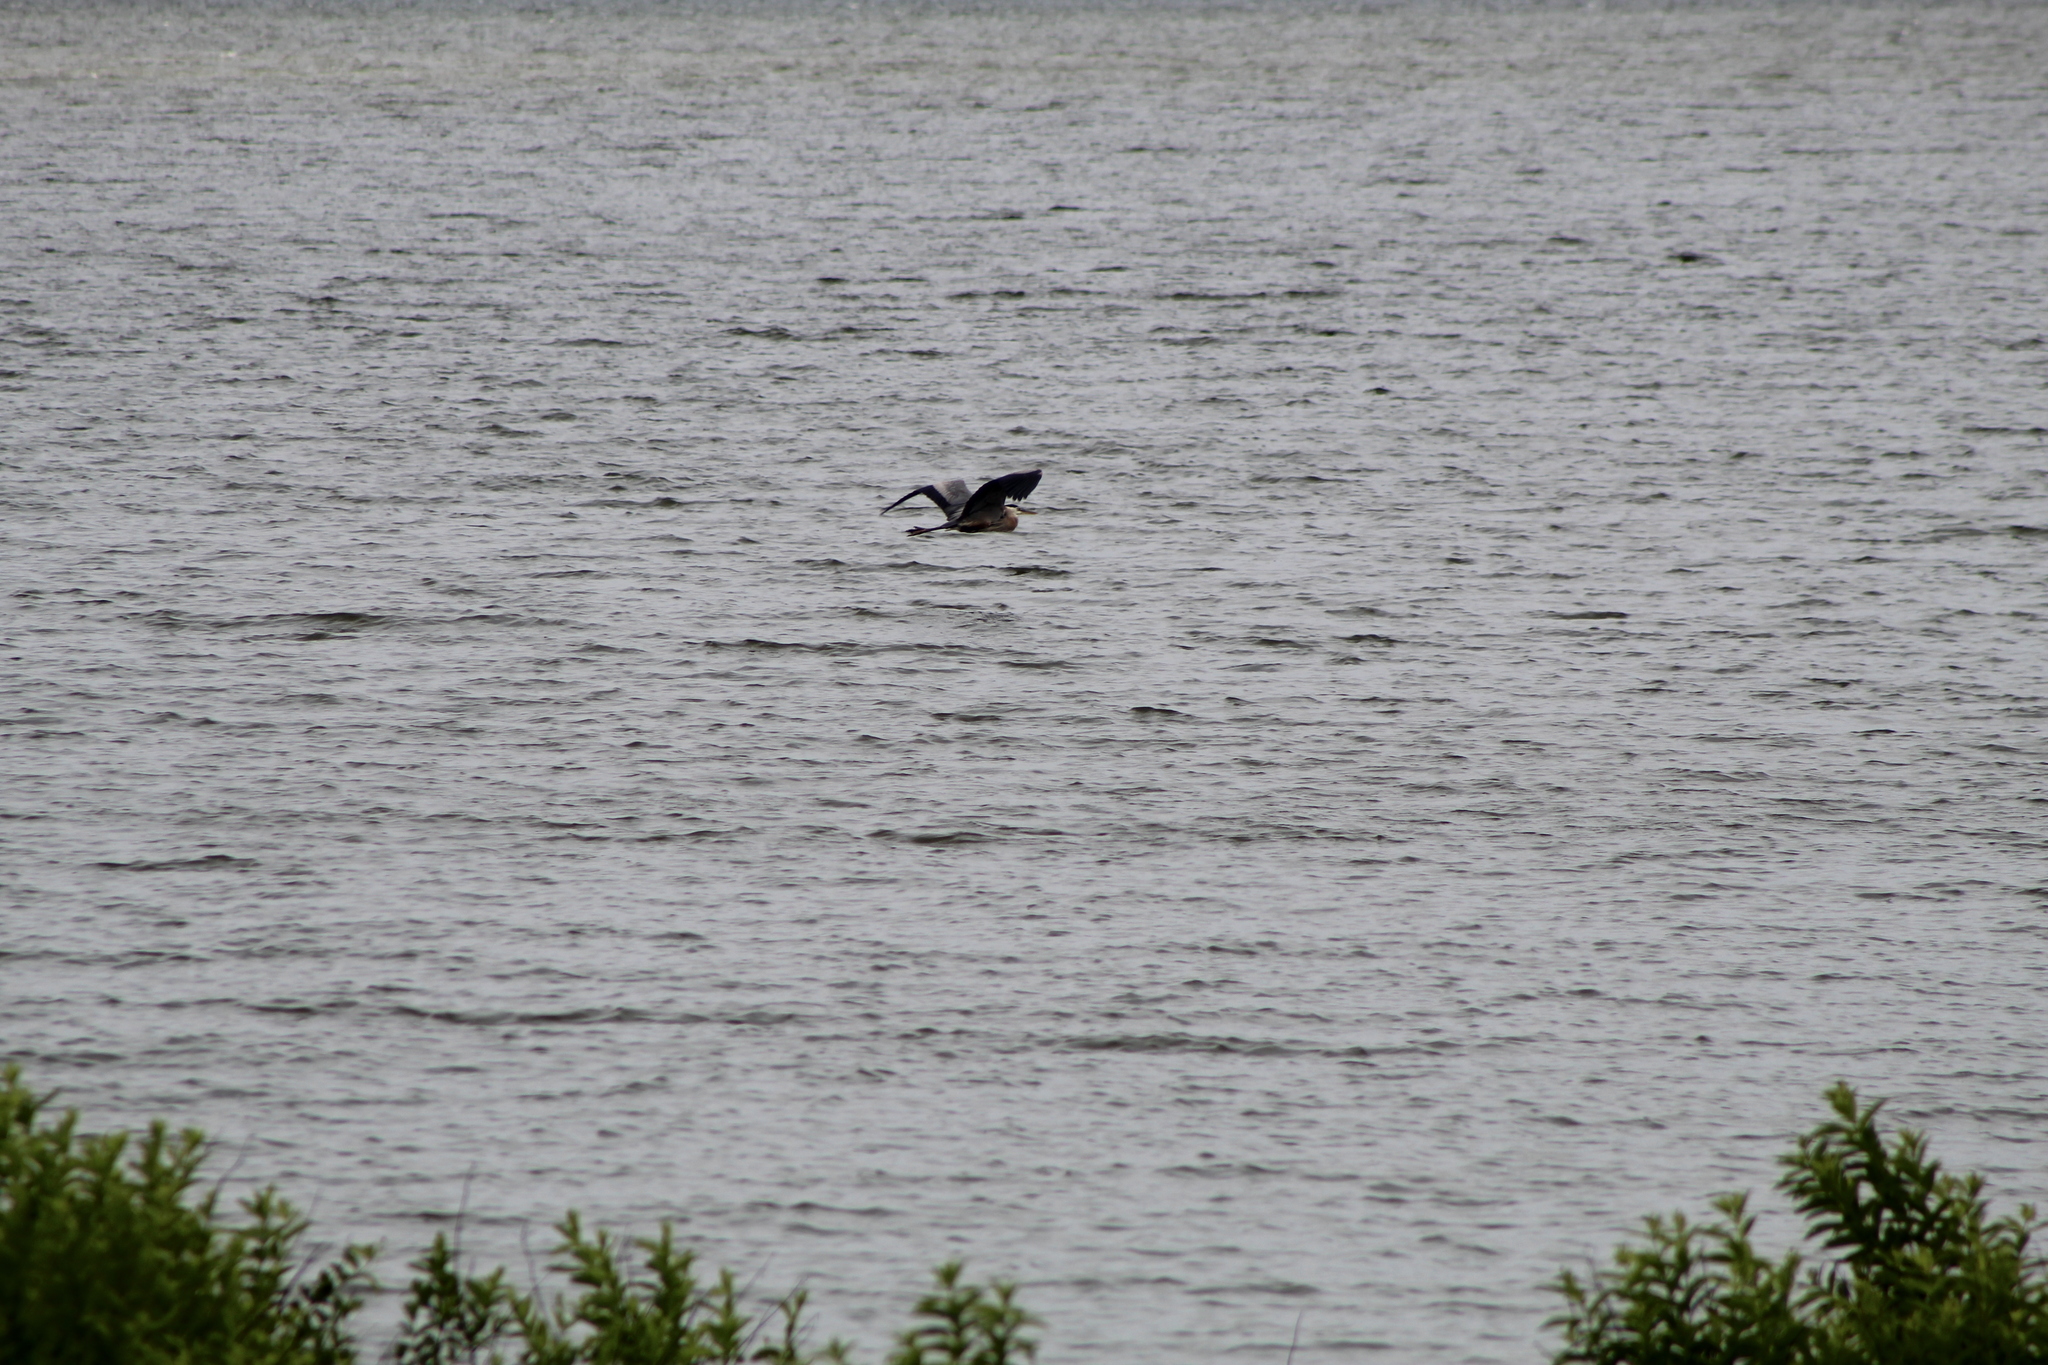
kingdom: Animalia
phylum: Chordata
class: Aves
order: Pelecaniformes
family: Ardeidae
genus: Ardea
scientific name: Ardea herodias
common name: Great blue heron
